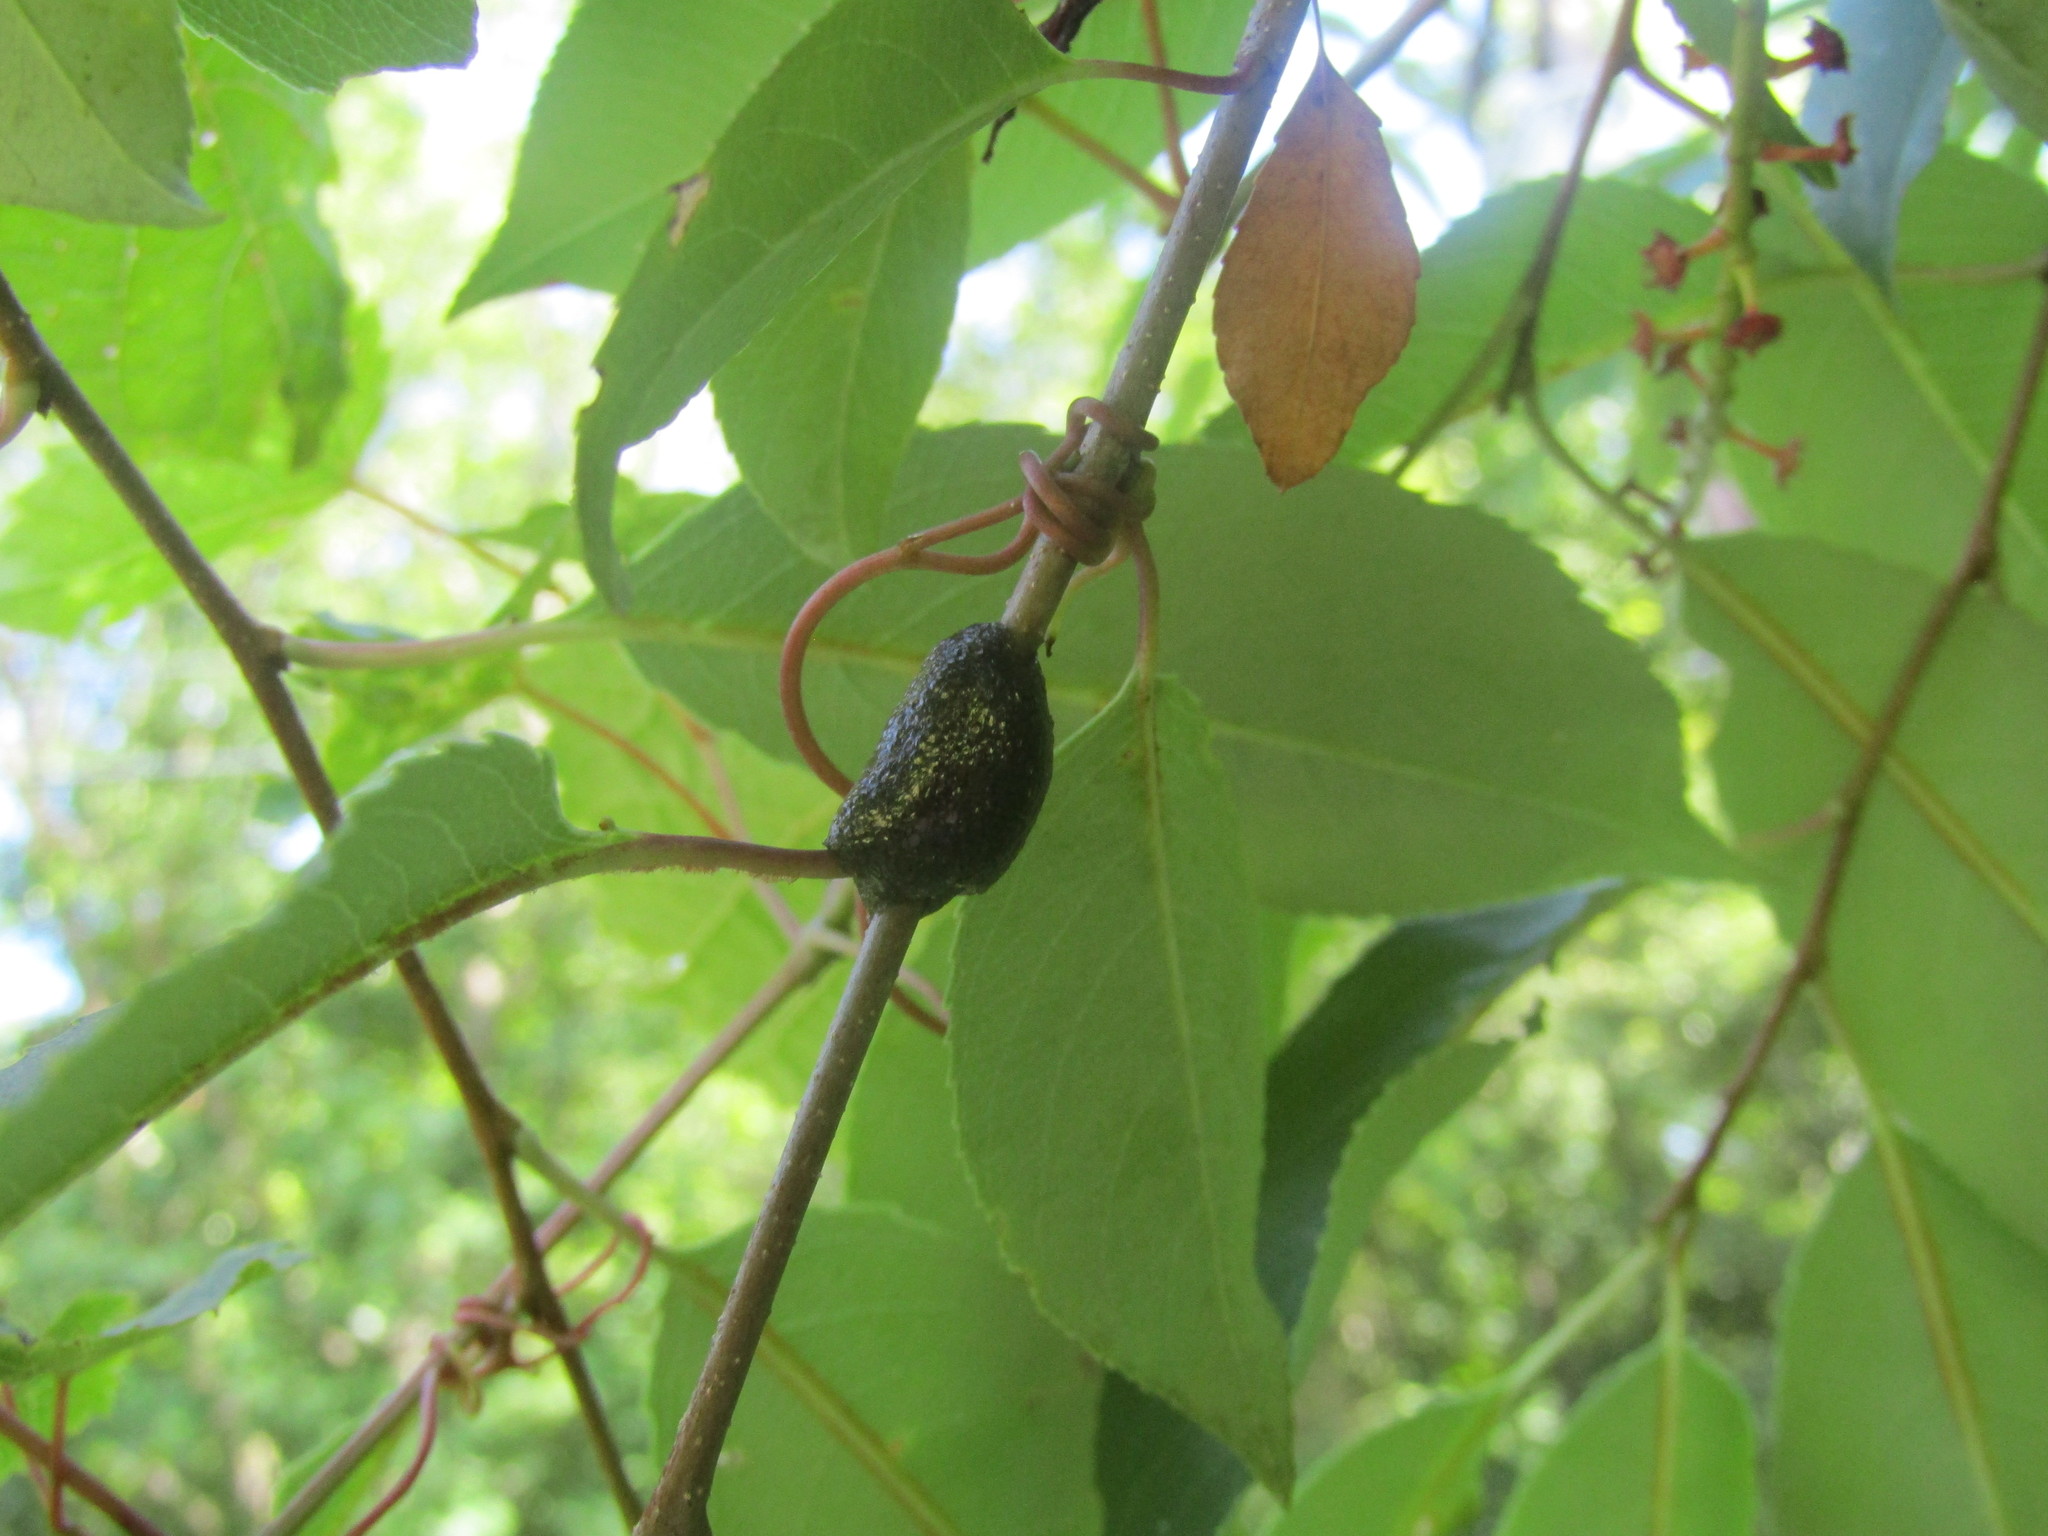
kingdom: Animalia
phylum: Arthropoda
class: Insecta
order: Lepidoptera
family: Lasiocampidae
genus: Malacosoma
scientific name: Malacosoma americana
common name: Eastern tent caterpillar moth
